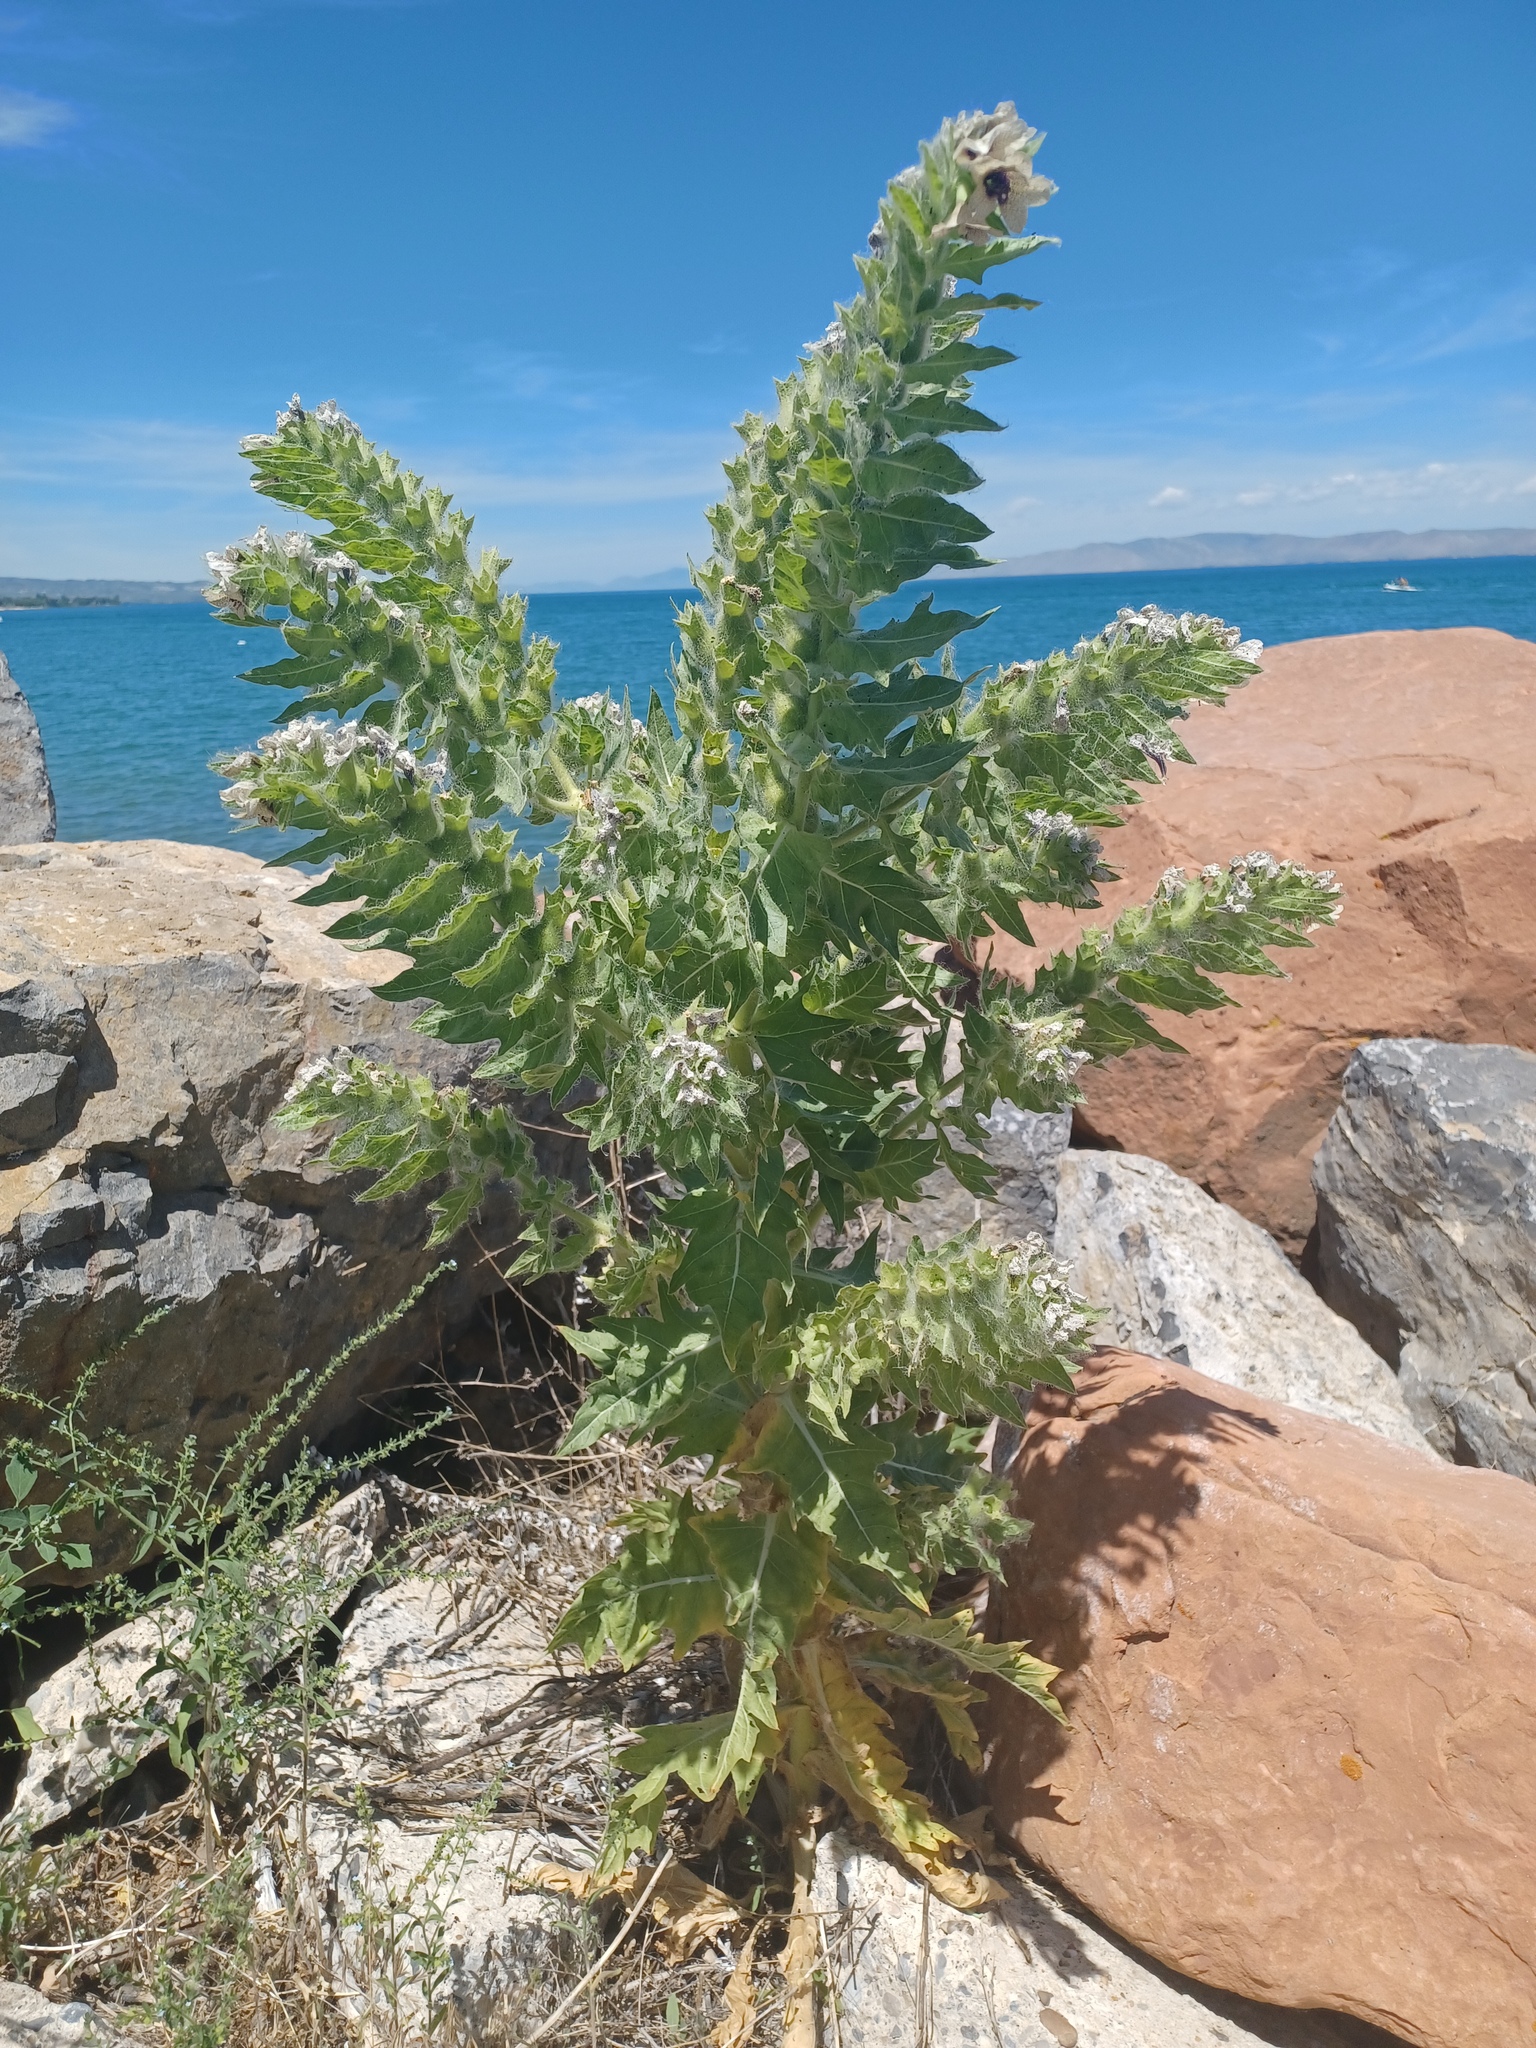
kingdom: Plantae
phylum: Tracheophyta
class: Magnoliopsida
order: Solanales
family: Solanaceae
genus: Hyoscyamus
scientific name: Hyoscyamus niger
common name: Henbane
